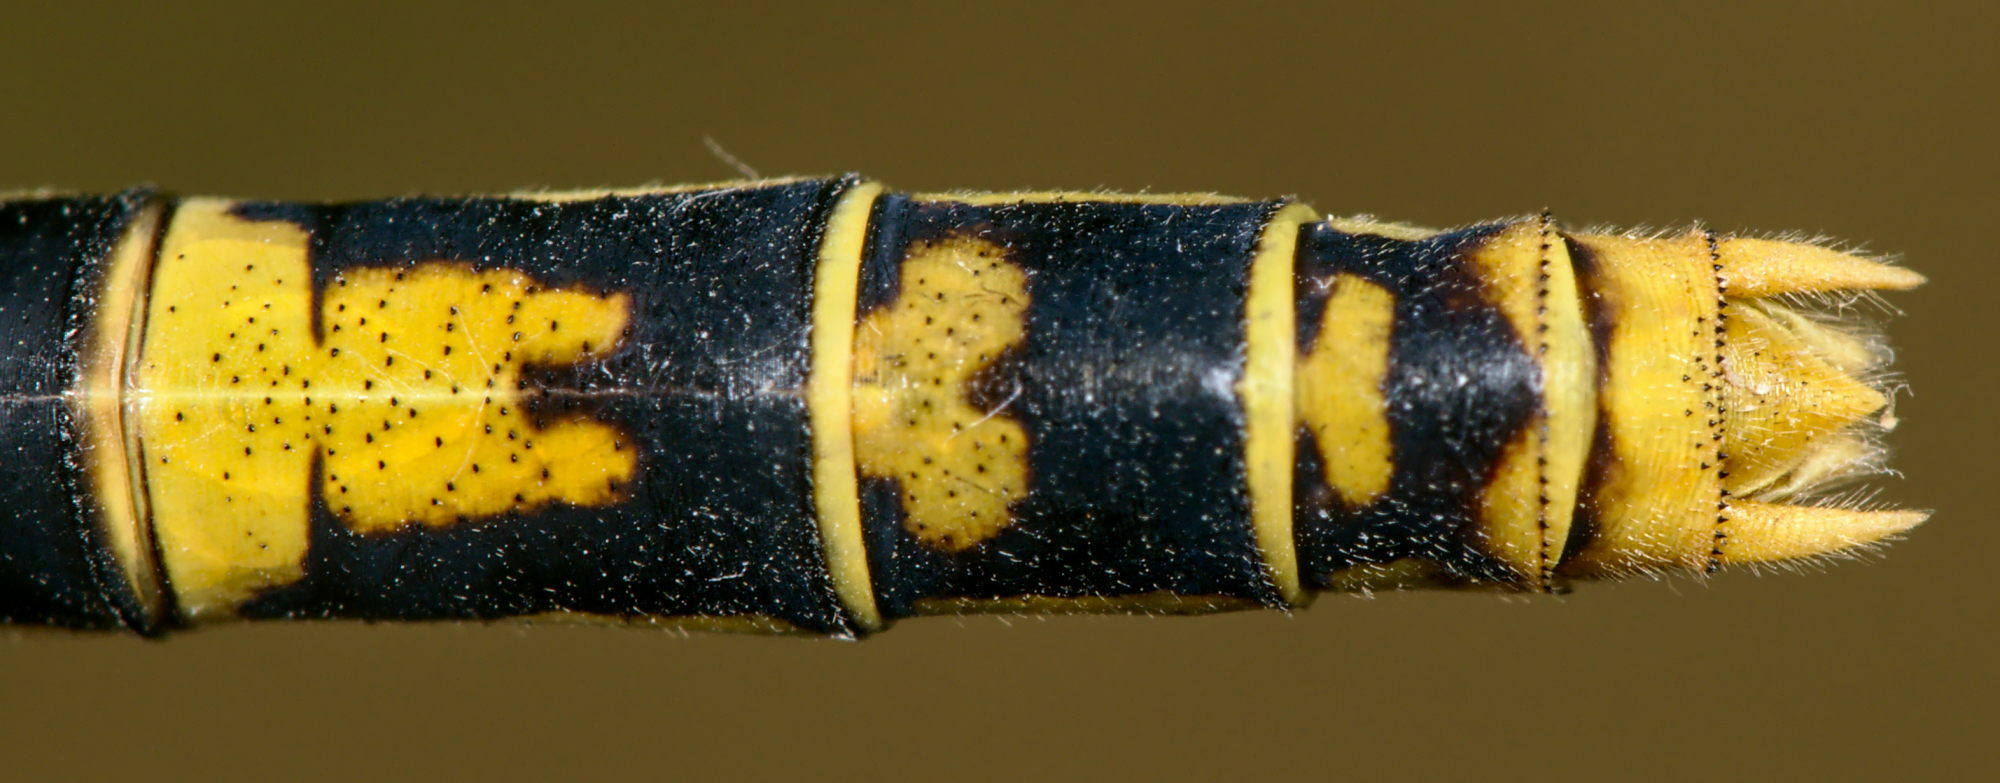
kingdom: Animalia
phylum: Arthropoda
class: Insecta
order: Odonata
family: Gomphidae
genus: Onychogomphus
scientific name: Onychogomphus forcipatus
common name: Small pincertail
